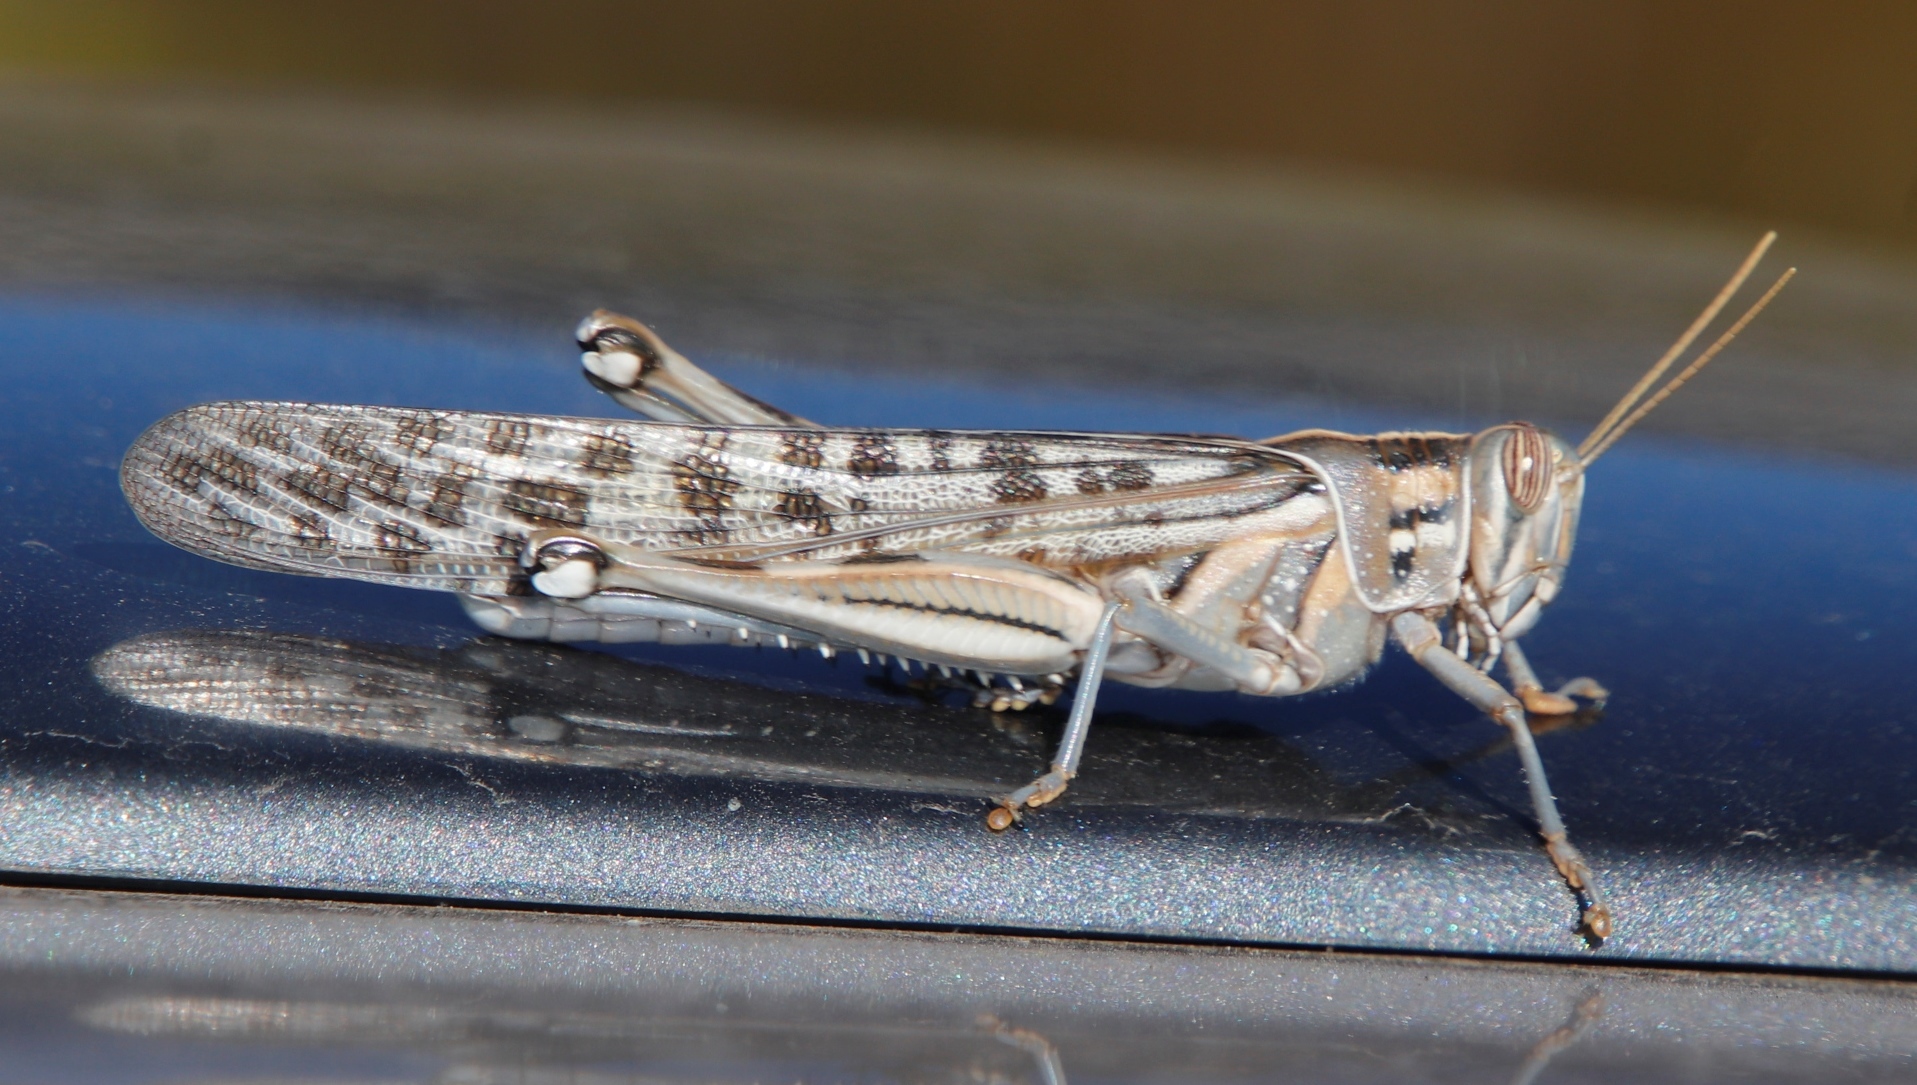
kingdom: Animalia
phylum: Arthropoda
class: Insecta
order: Orthoptera
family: Acrididae
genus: Schistocerca
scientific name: Schistocerca gregaria
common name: Desert locust
